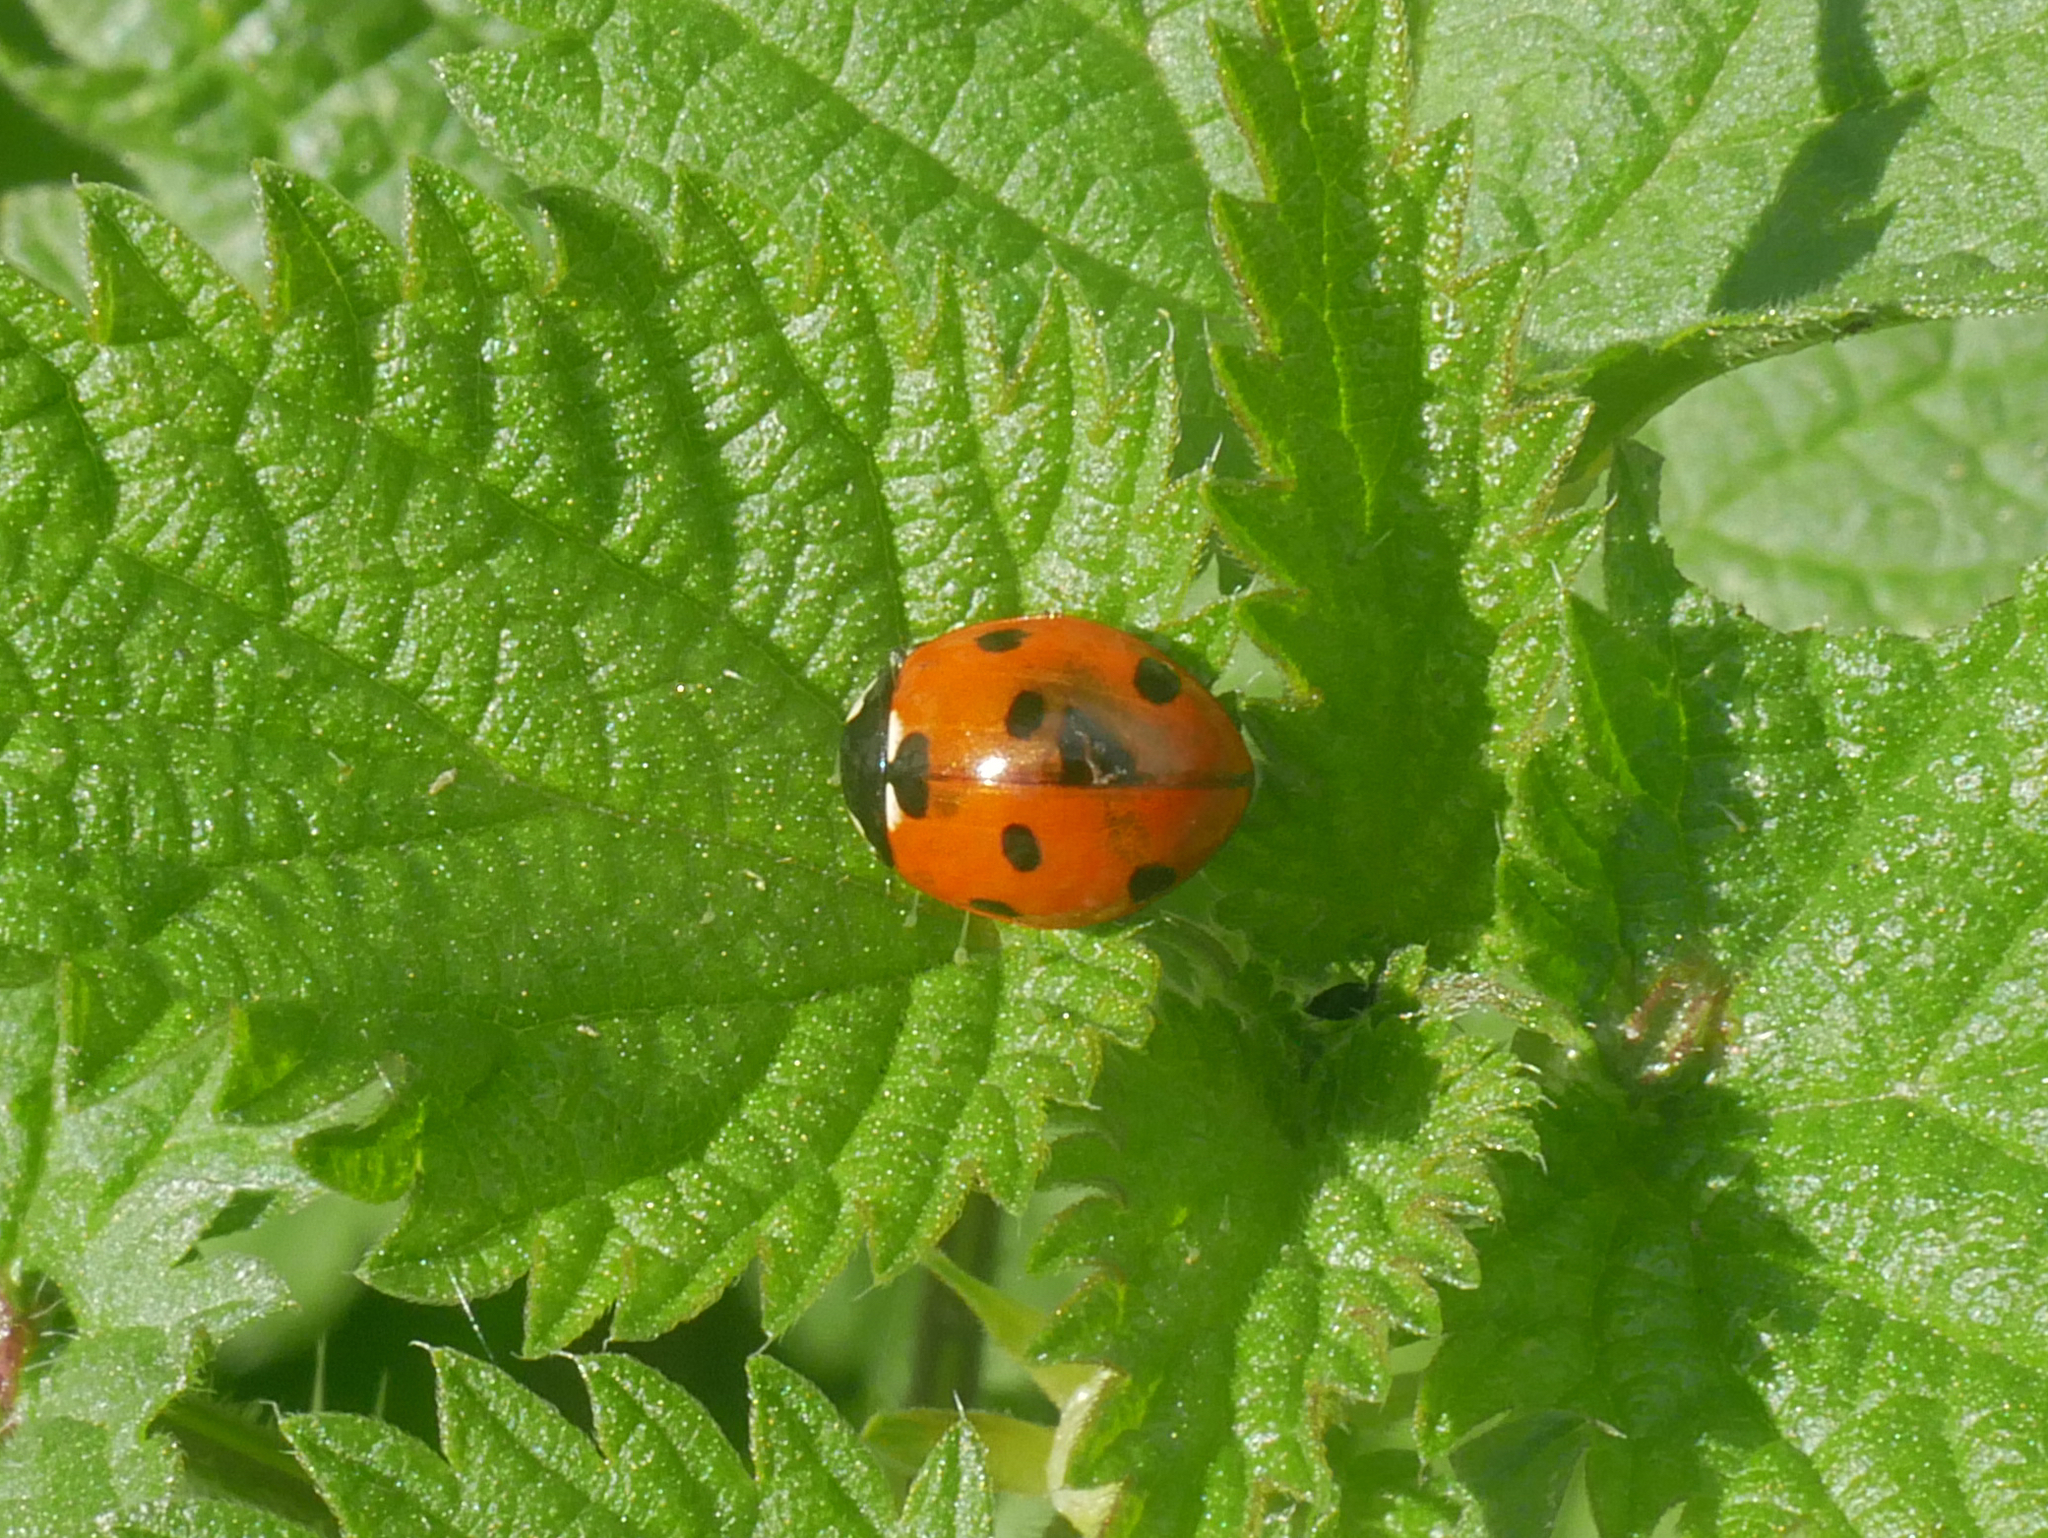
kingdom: Animalia
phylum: Arthropoda
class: Insecta
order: Coleoptera
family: Coccinellidae
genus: Coccinella
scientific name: Coccinella septempunctata
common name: Sevenspotted lady beetle
